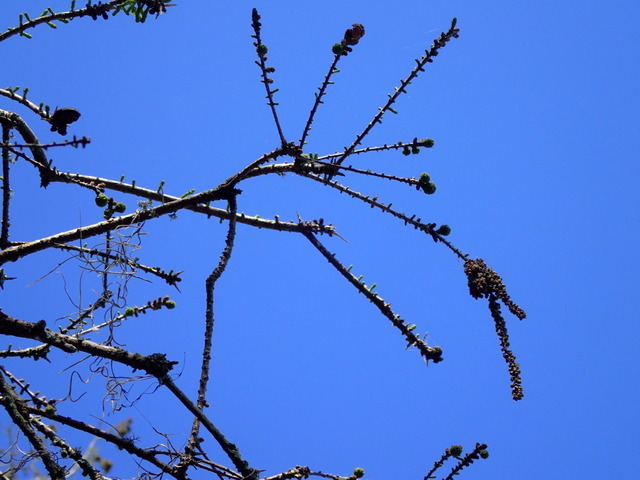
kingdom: Plantae
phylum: Tracheophyta
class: Pinopsida
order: Pinales
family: Cupressaceae
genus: Taxodium
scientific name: Taxodium distichum
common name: Bald cypress
